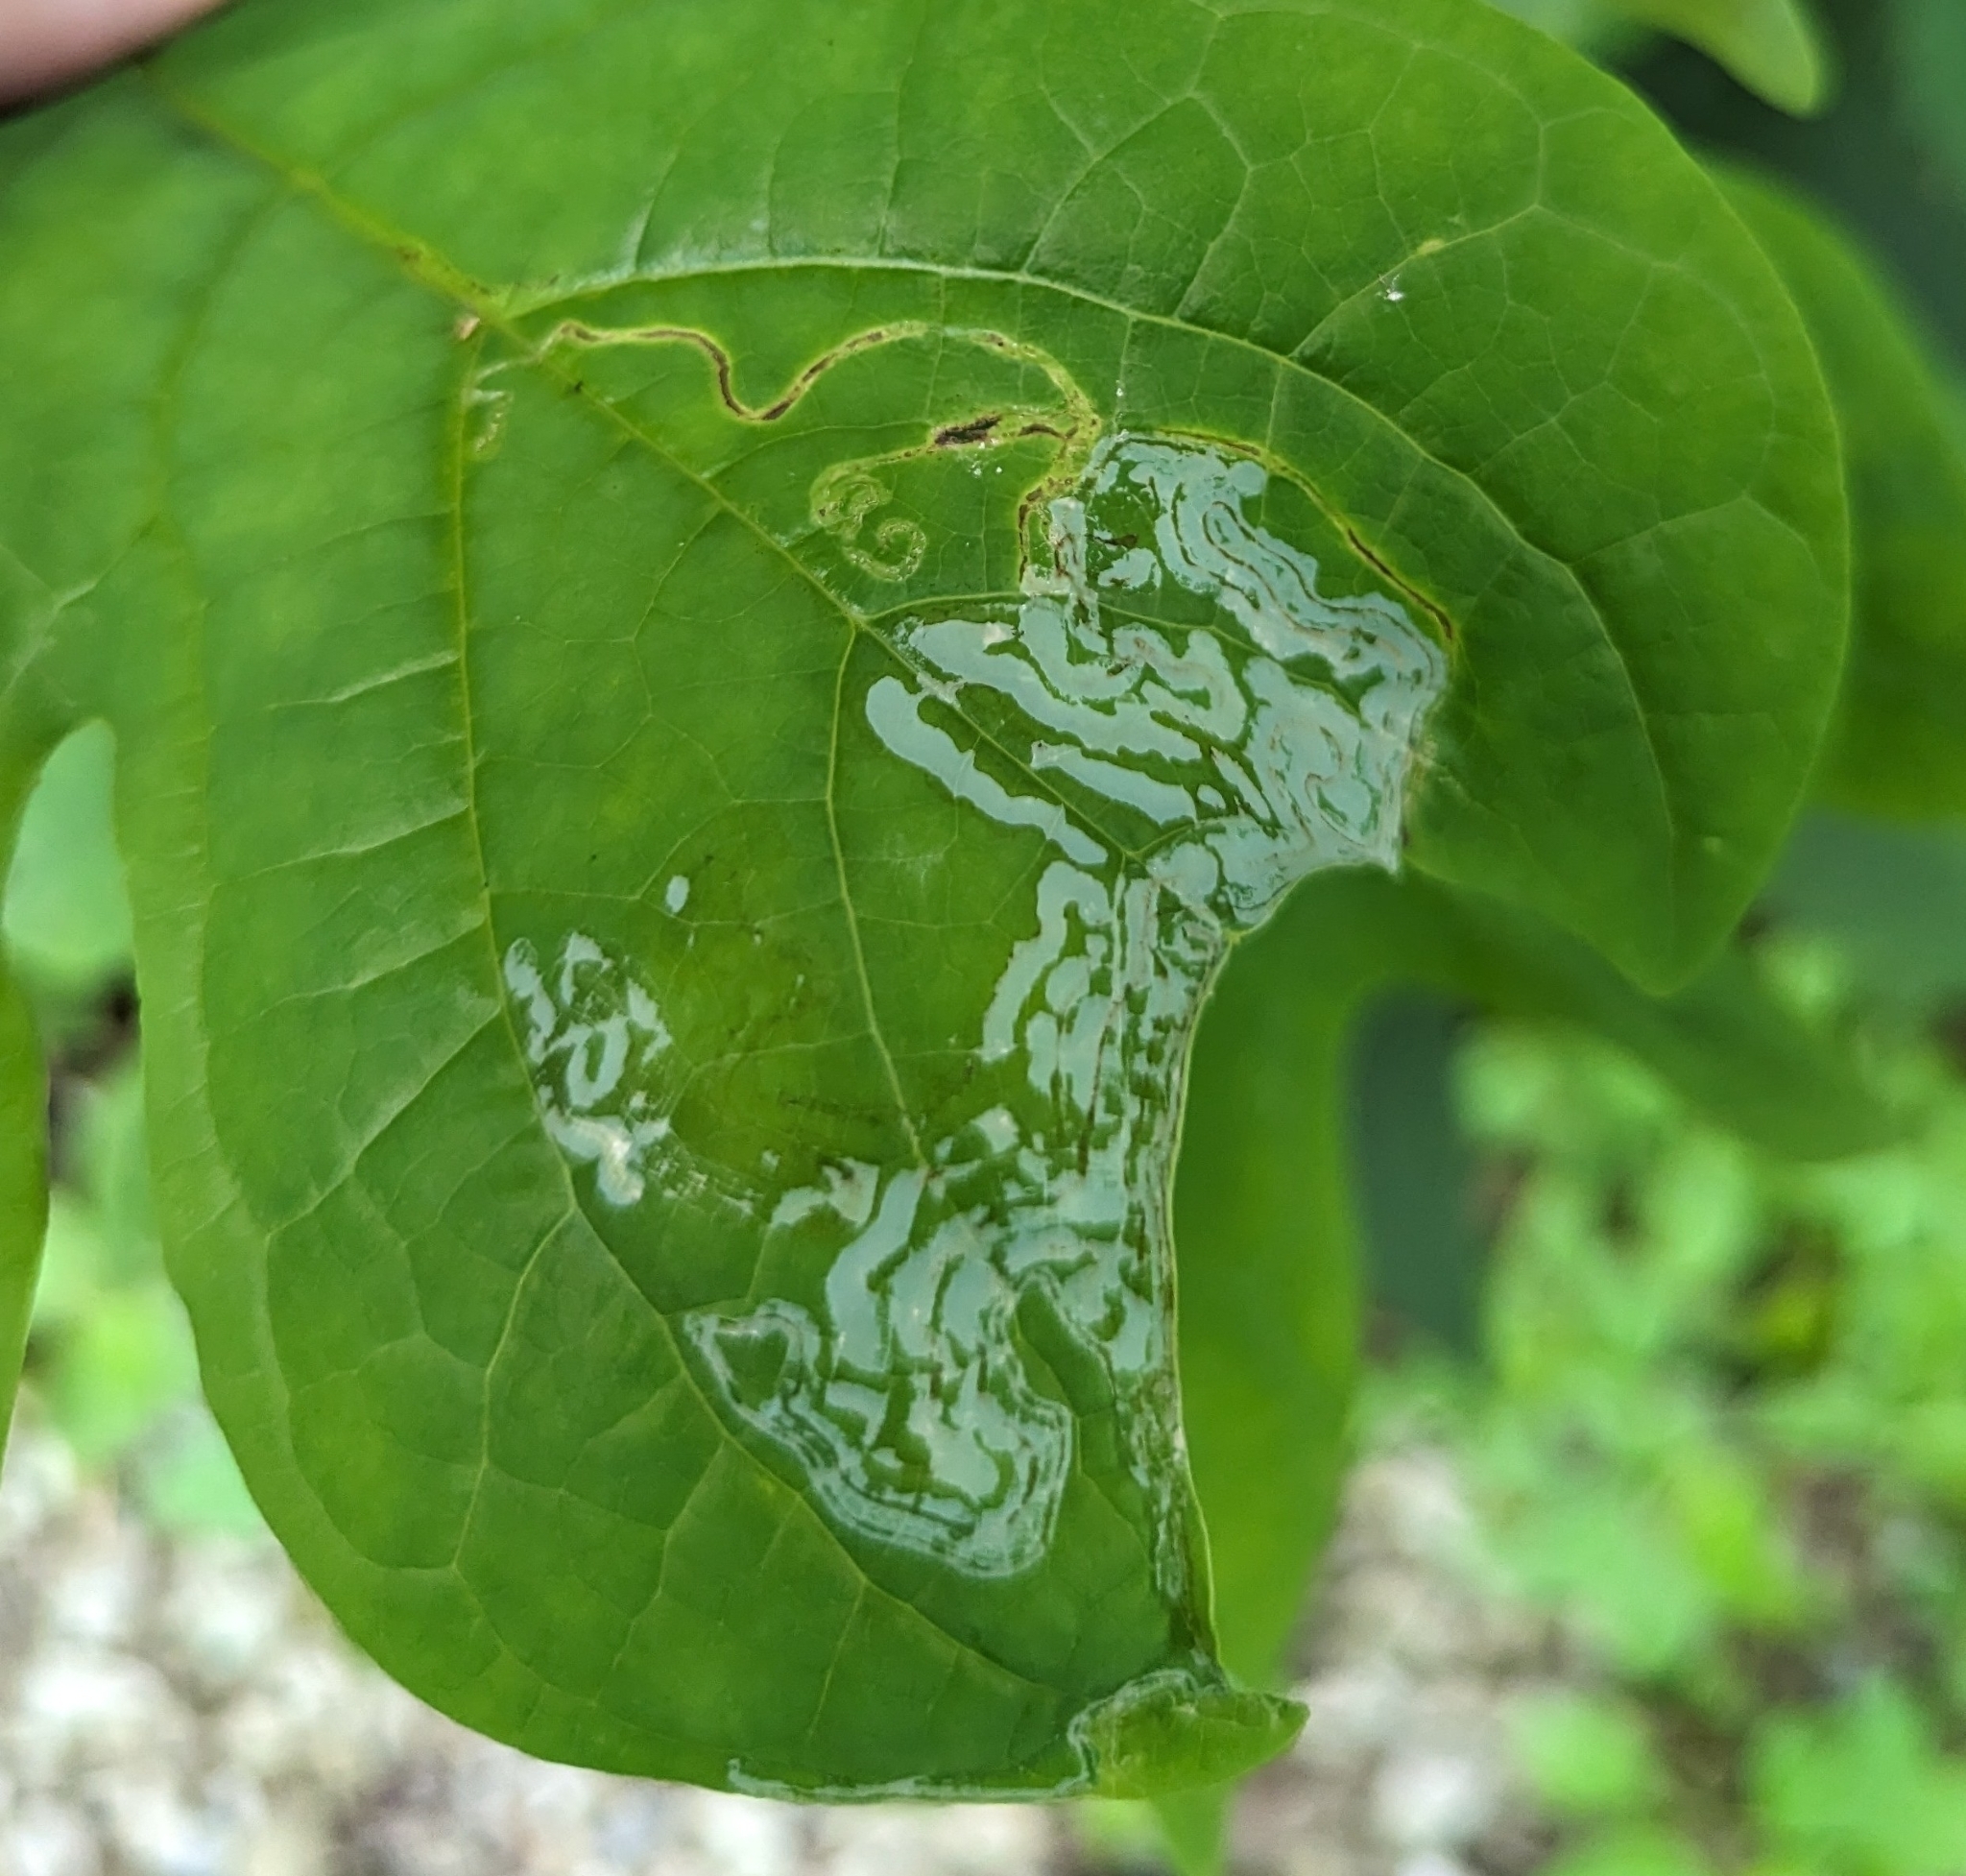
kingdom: Animalia
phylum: Arthropoda
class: Insecta
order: Lepidoptera
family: Gracillariidae
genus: Phyllocnistis
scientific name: Phyllocnistis liriodendronella
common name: Tulip tree leaf miner
